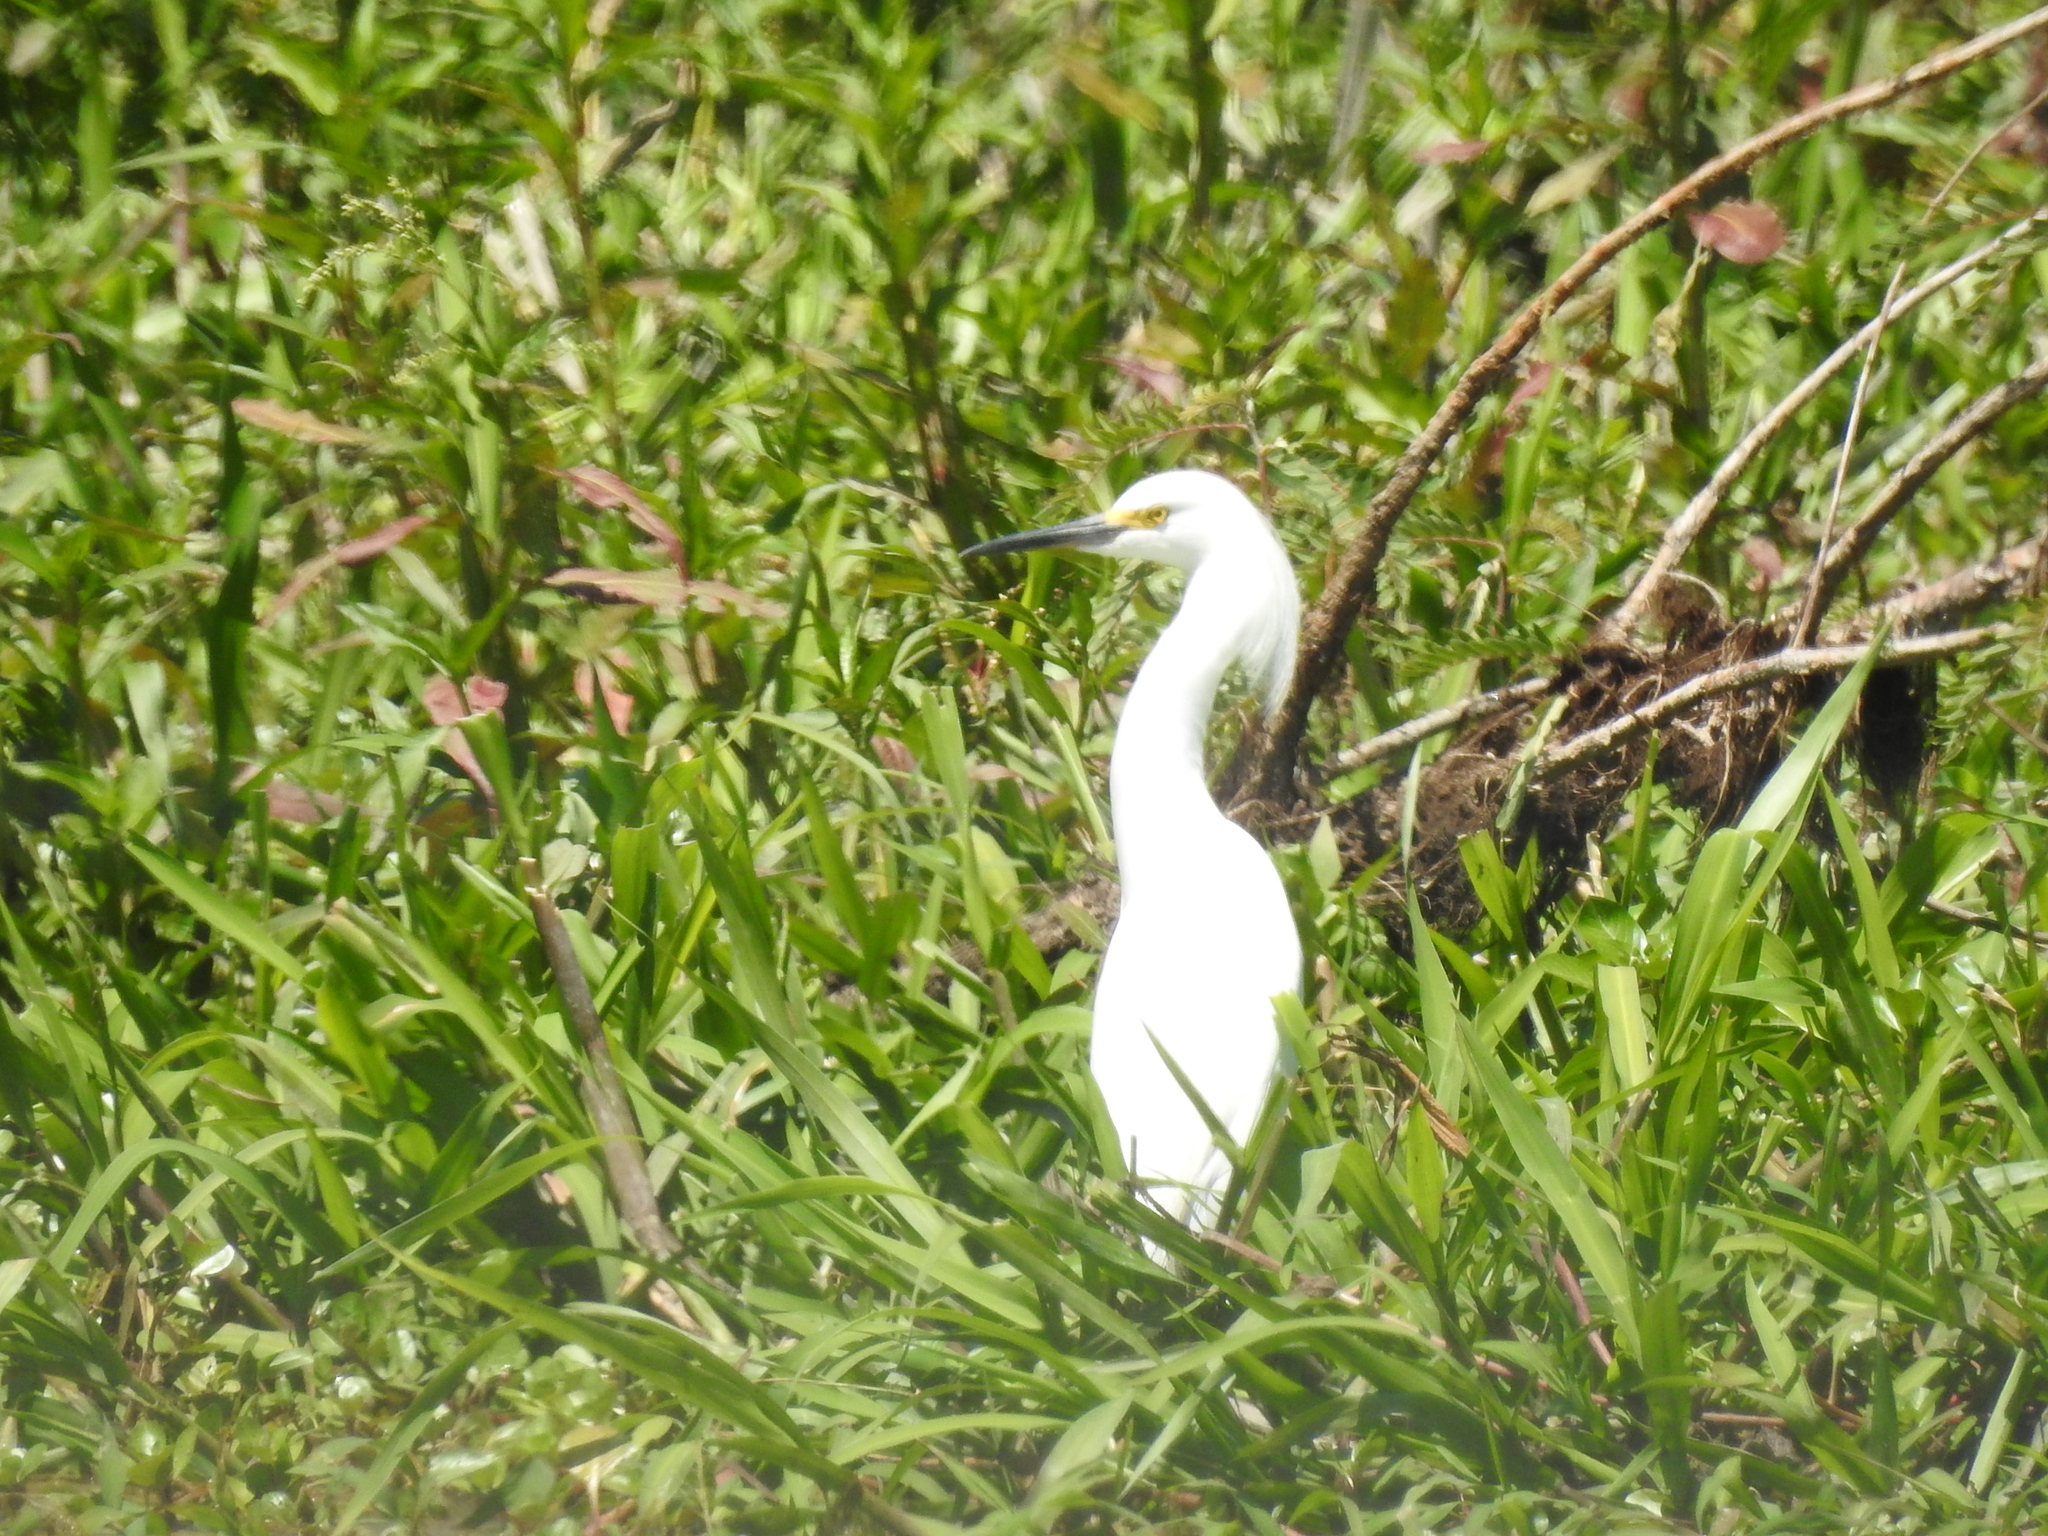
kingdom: Animalia
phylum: Chordata
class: Aves
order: Pelecaniformes
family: Ardeidae
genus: Egretta
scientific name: Egretta thula
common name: Snowy egret
